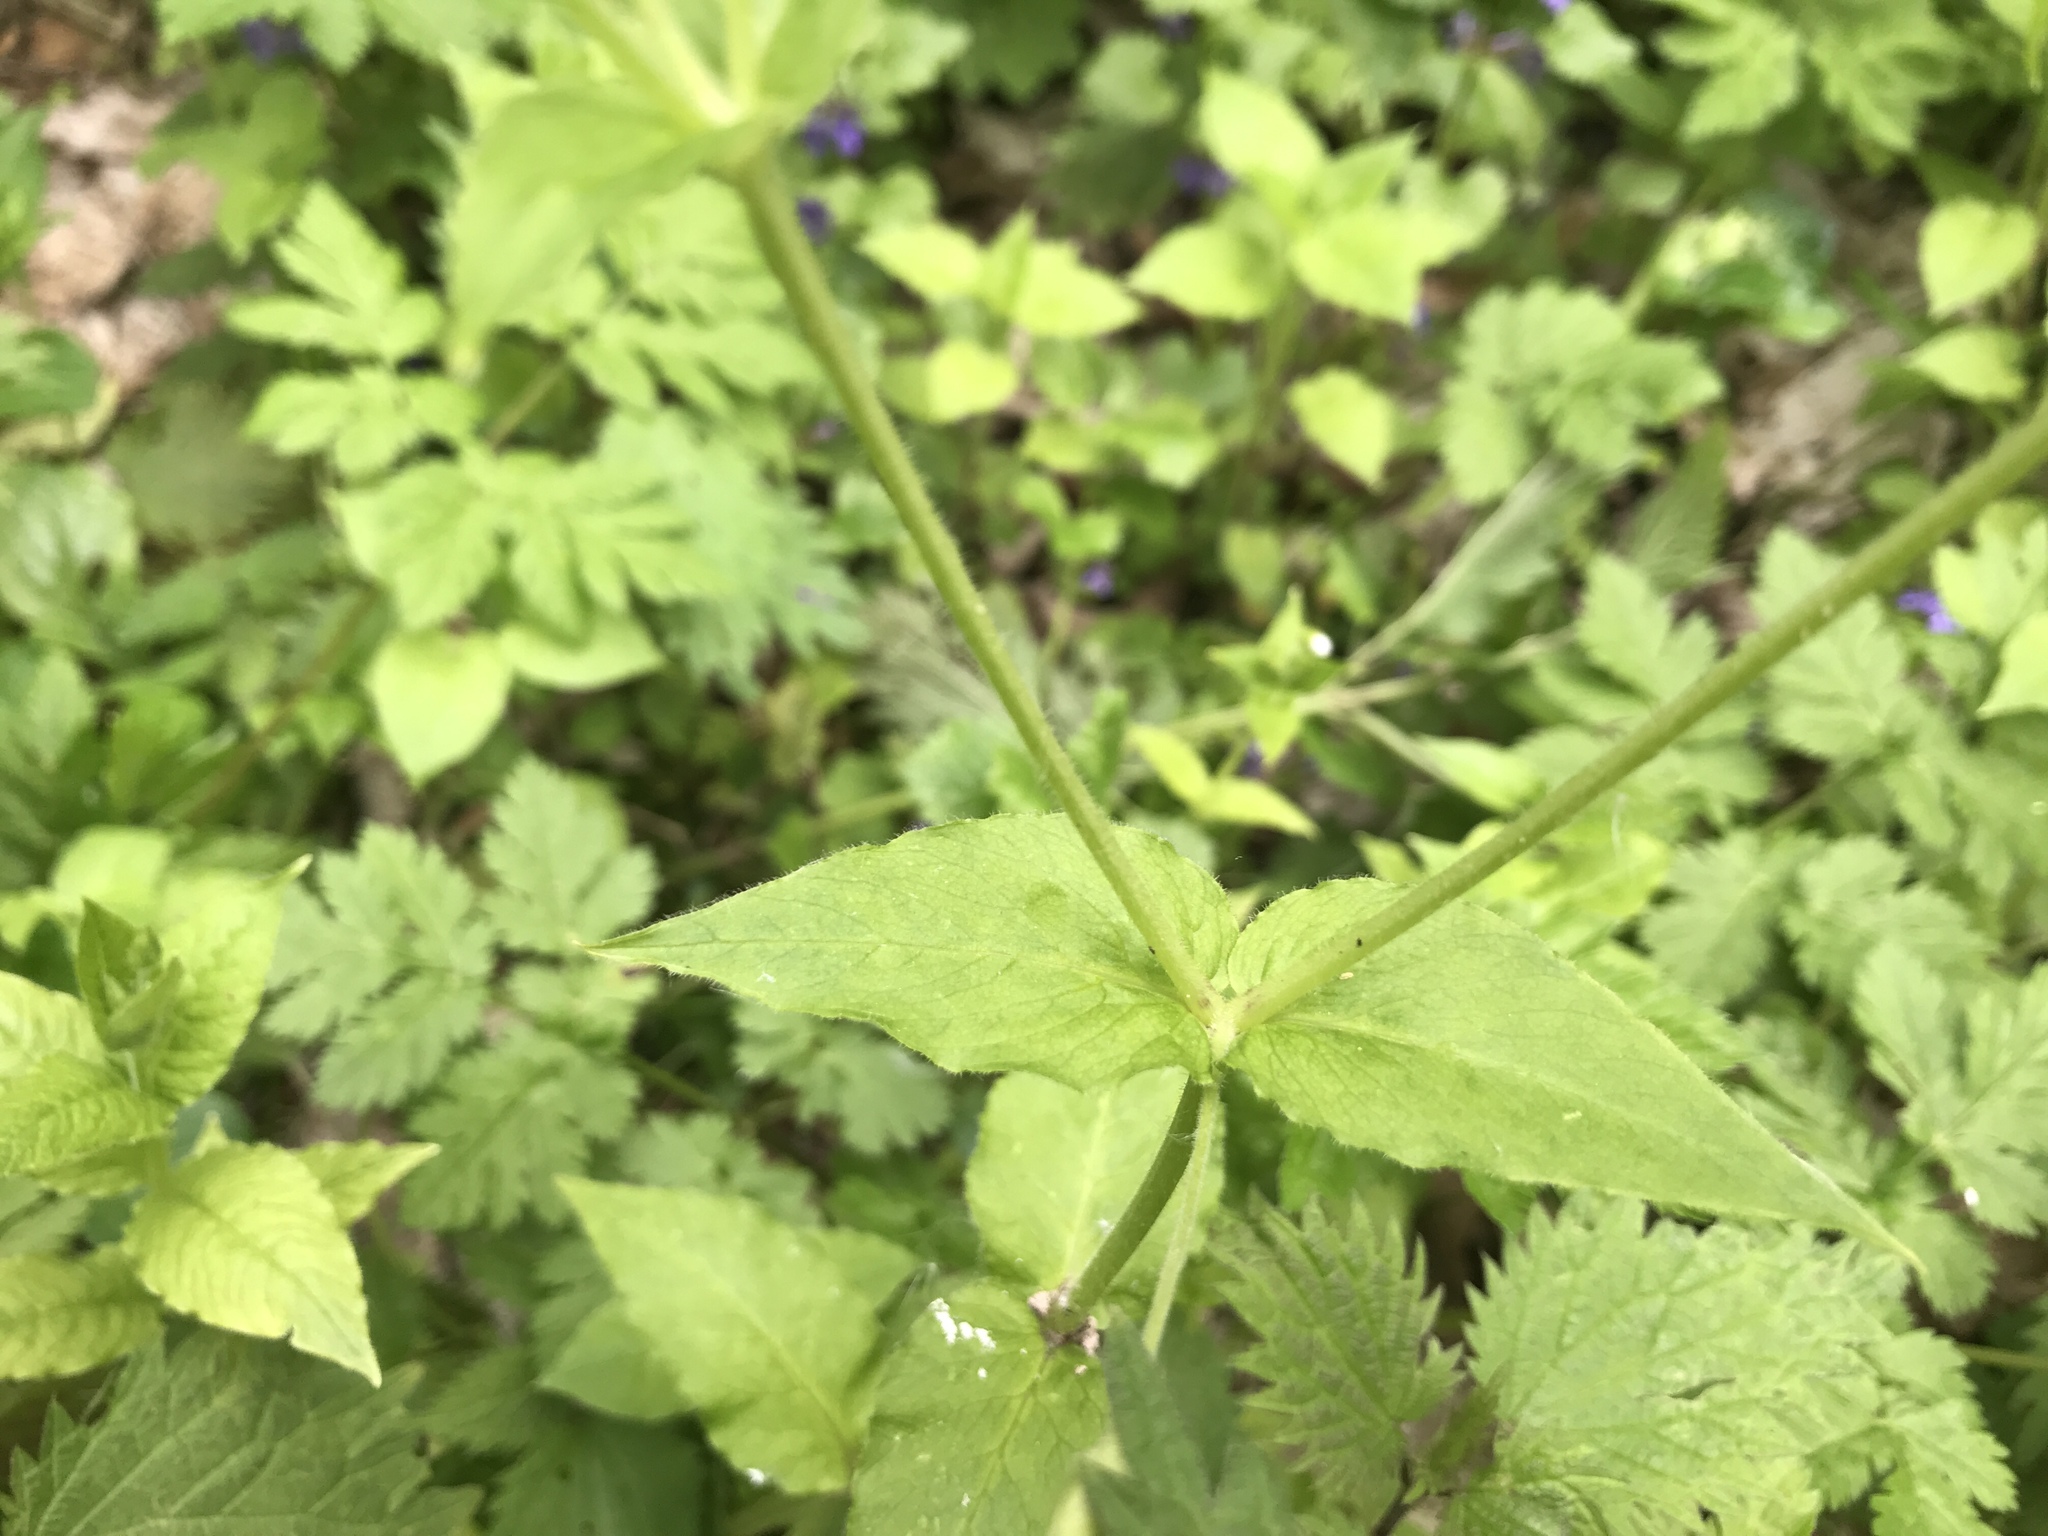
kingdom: Plantae
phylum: Tracheophyta
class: Magnoliopsida
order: Caryophyllales
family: Caryophyllaceae
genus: Stellaria
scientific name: Stellaria nemorum
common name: Wood stitchwort
